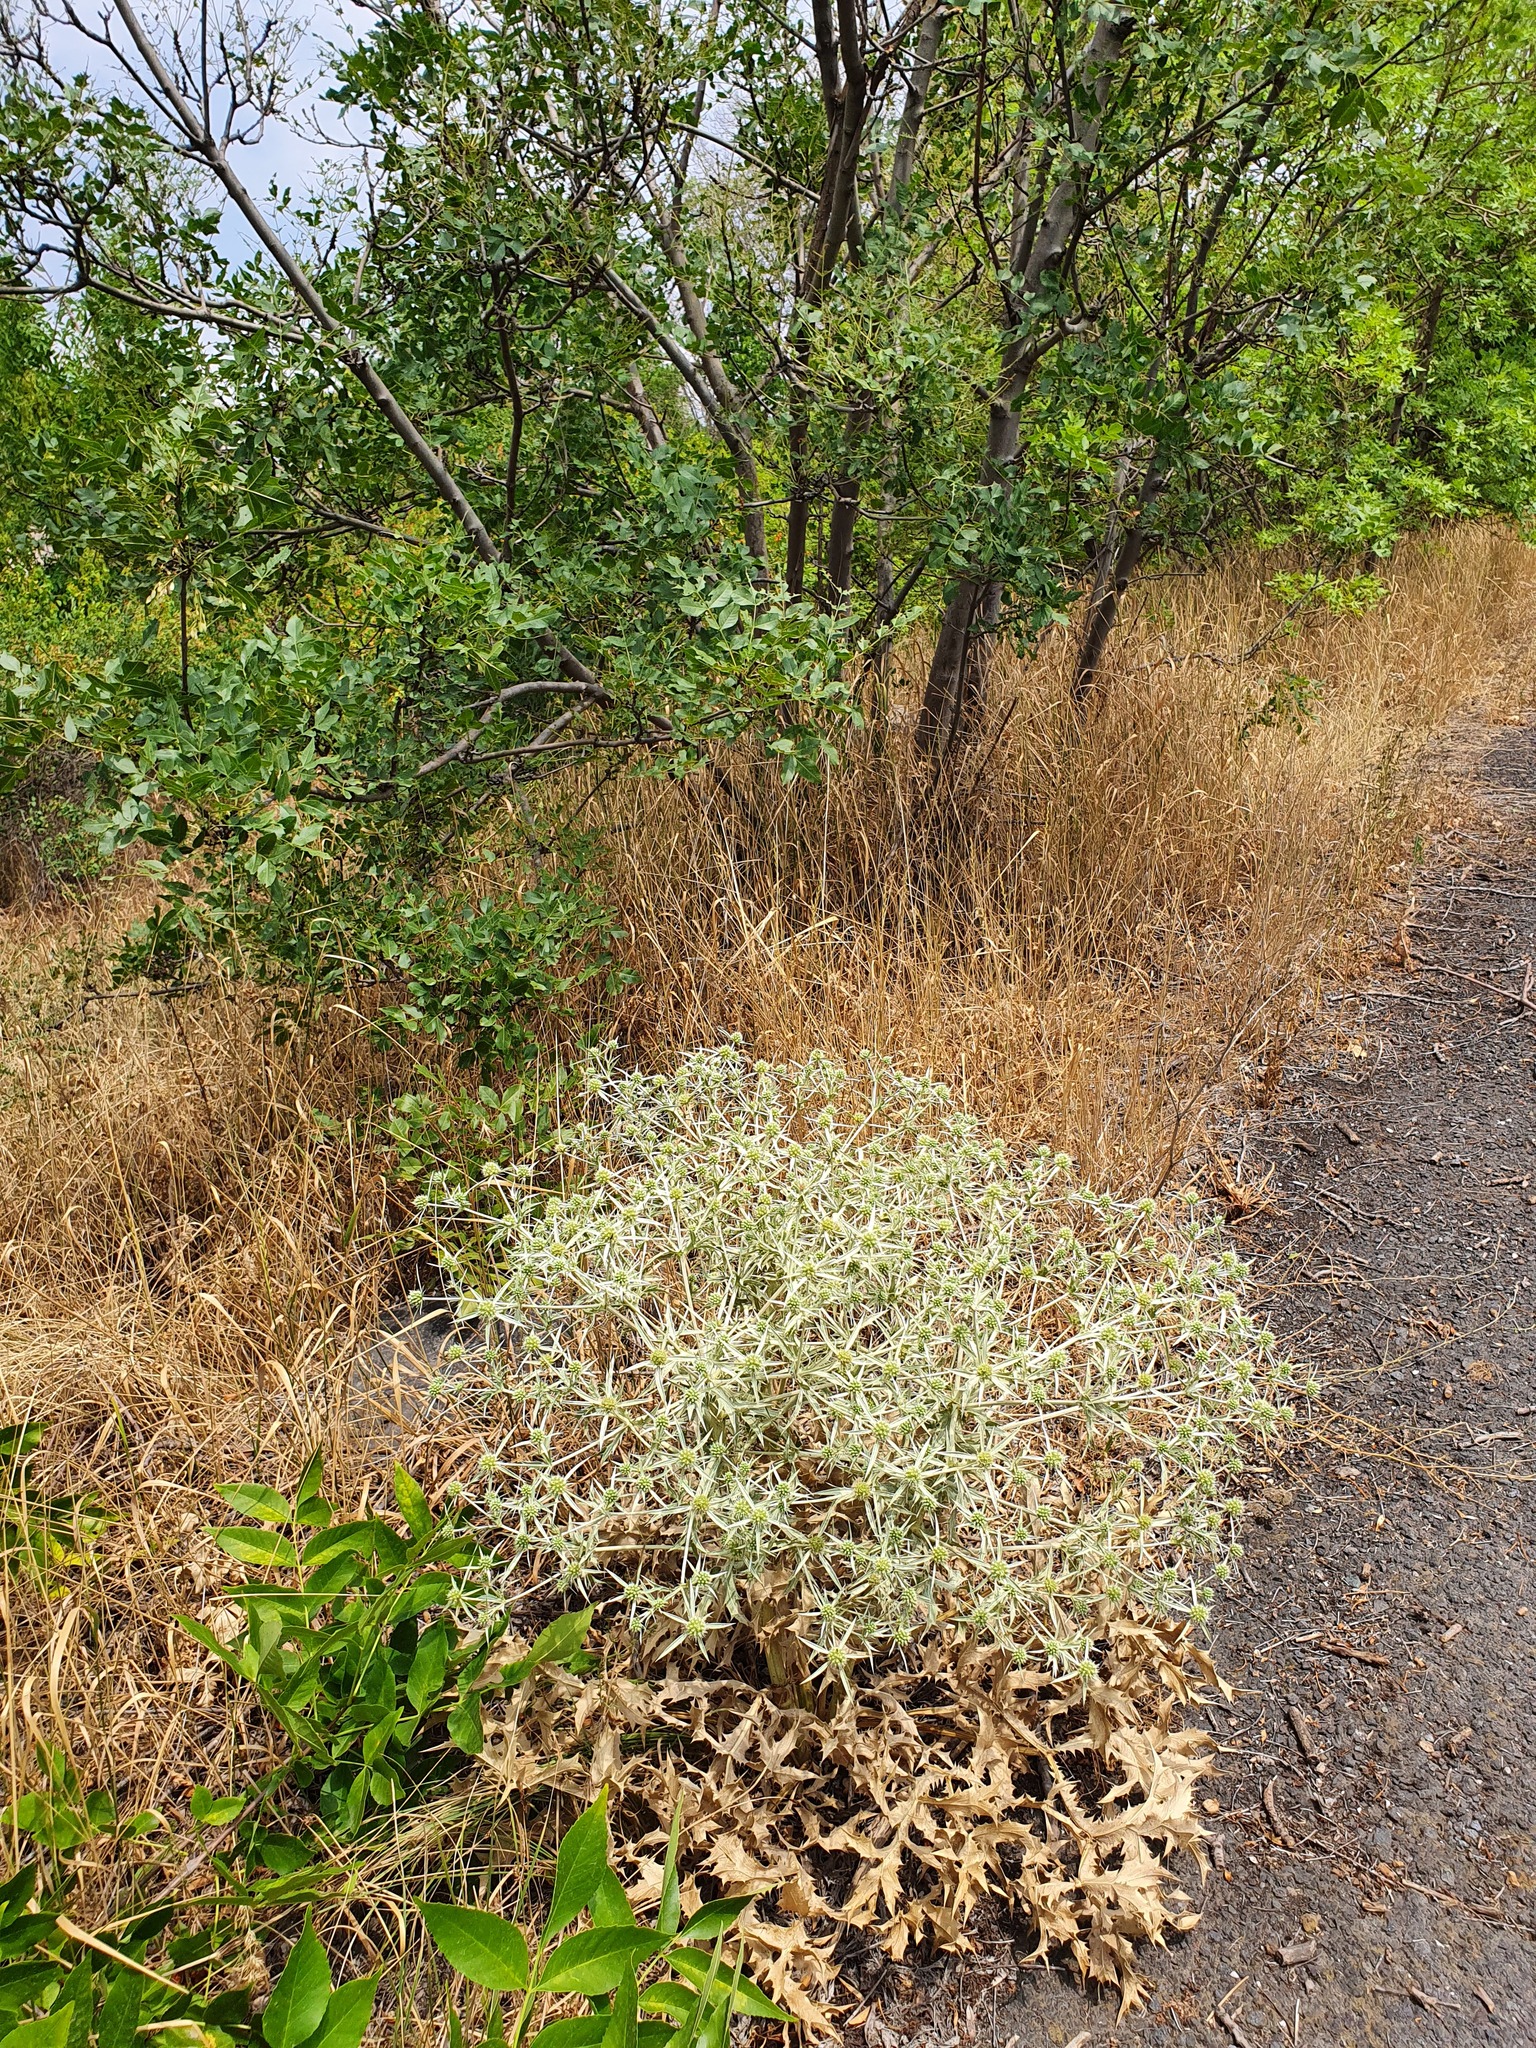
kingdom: Plantae
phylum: Tracheophyta
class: Magnoliopsida
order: Apiales
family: Apiaceae
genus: Eryngium
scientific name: Eryngium campestre
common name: Field eryngo
